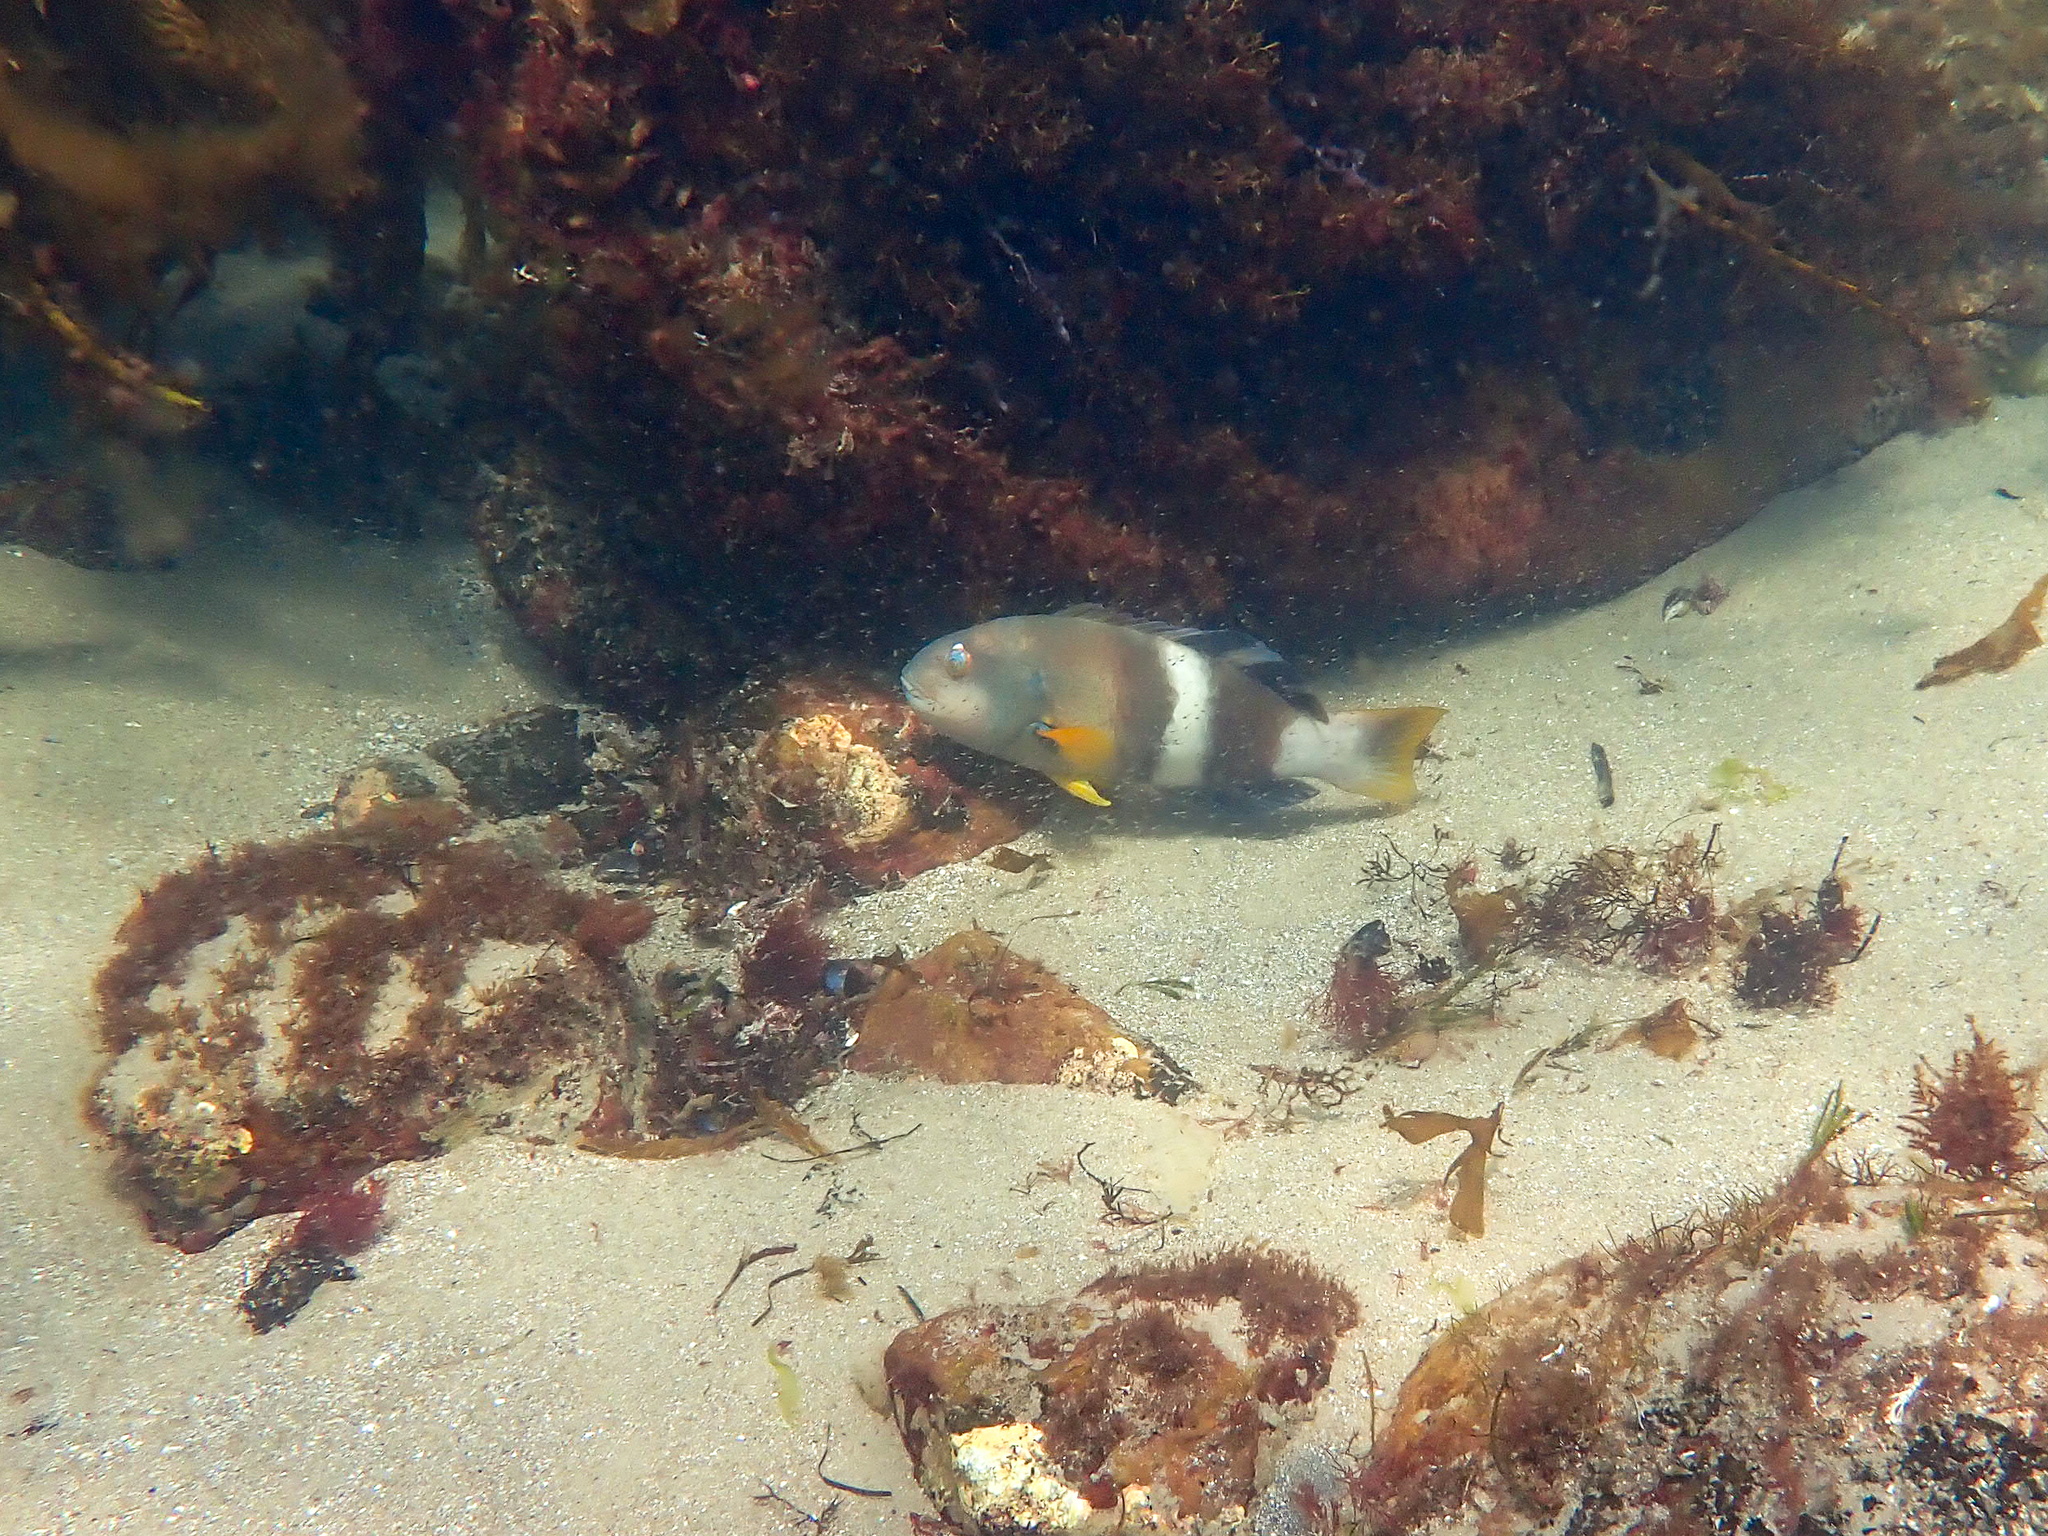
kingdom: Animalia
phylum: Chordata
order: Perciformes
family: Labridae
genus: Notolabrus
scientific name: Notolabrus tetricus
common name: Blue-throated parrotfish
